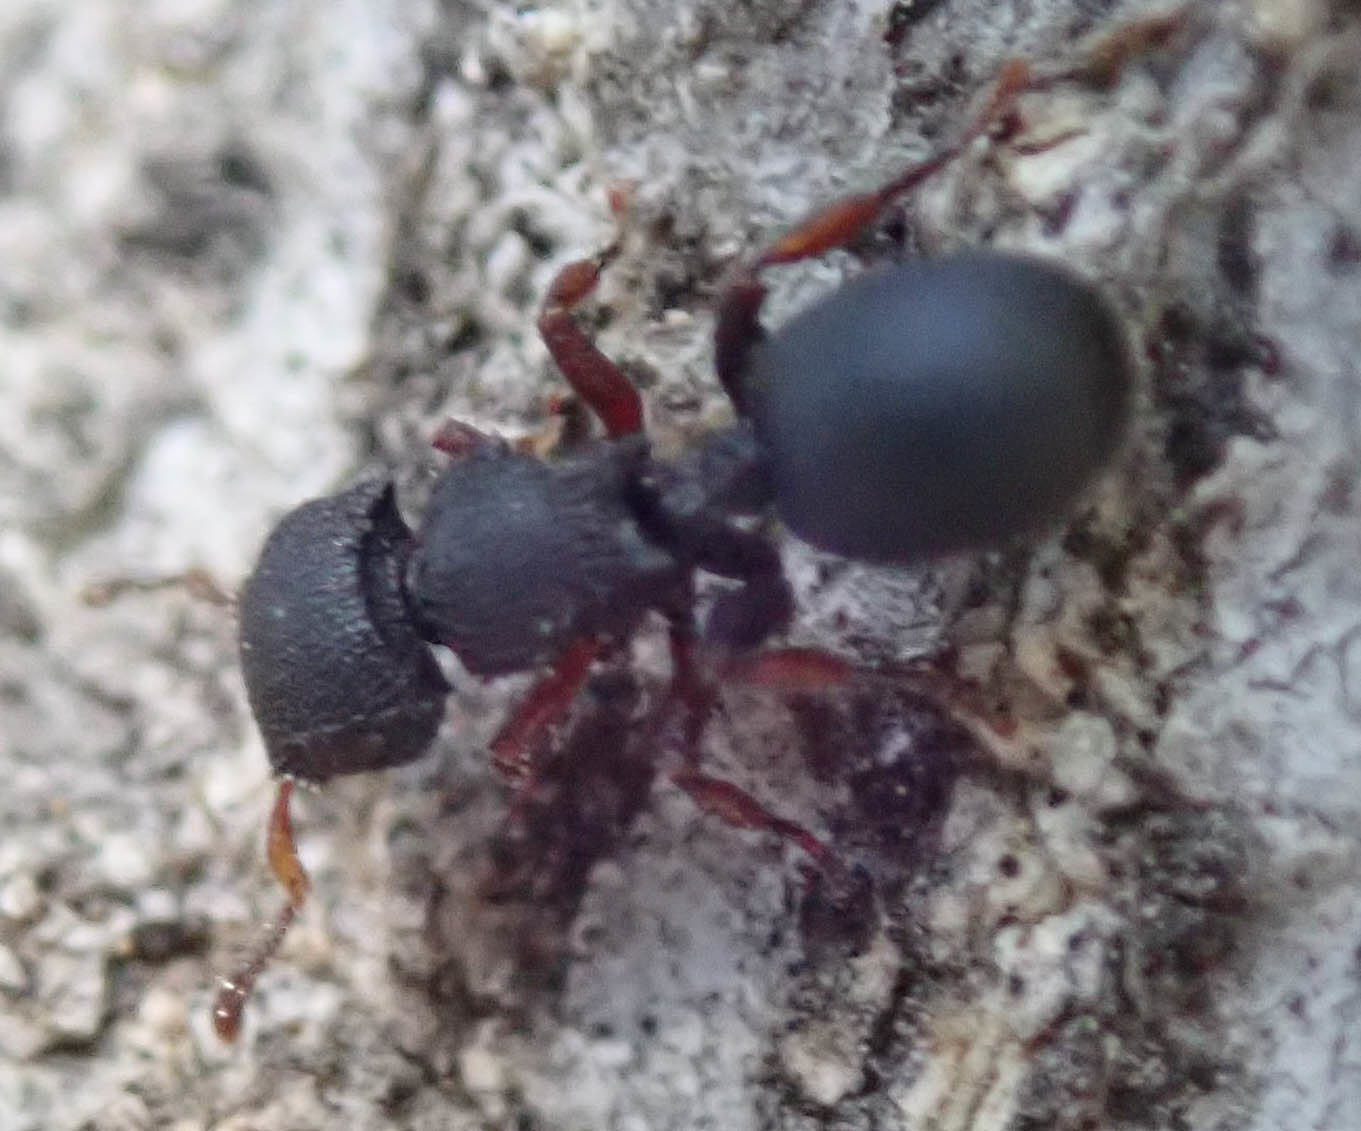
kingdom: Animalia
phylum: Arthropoda
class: Insecta
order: Hymenoptera
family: Formicidae
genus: Cataulacus
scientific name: Cataulacus intrudens
